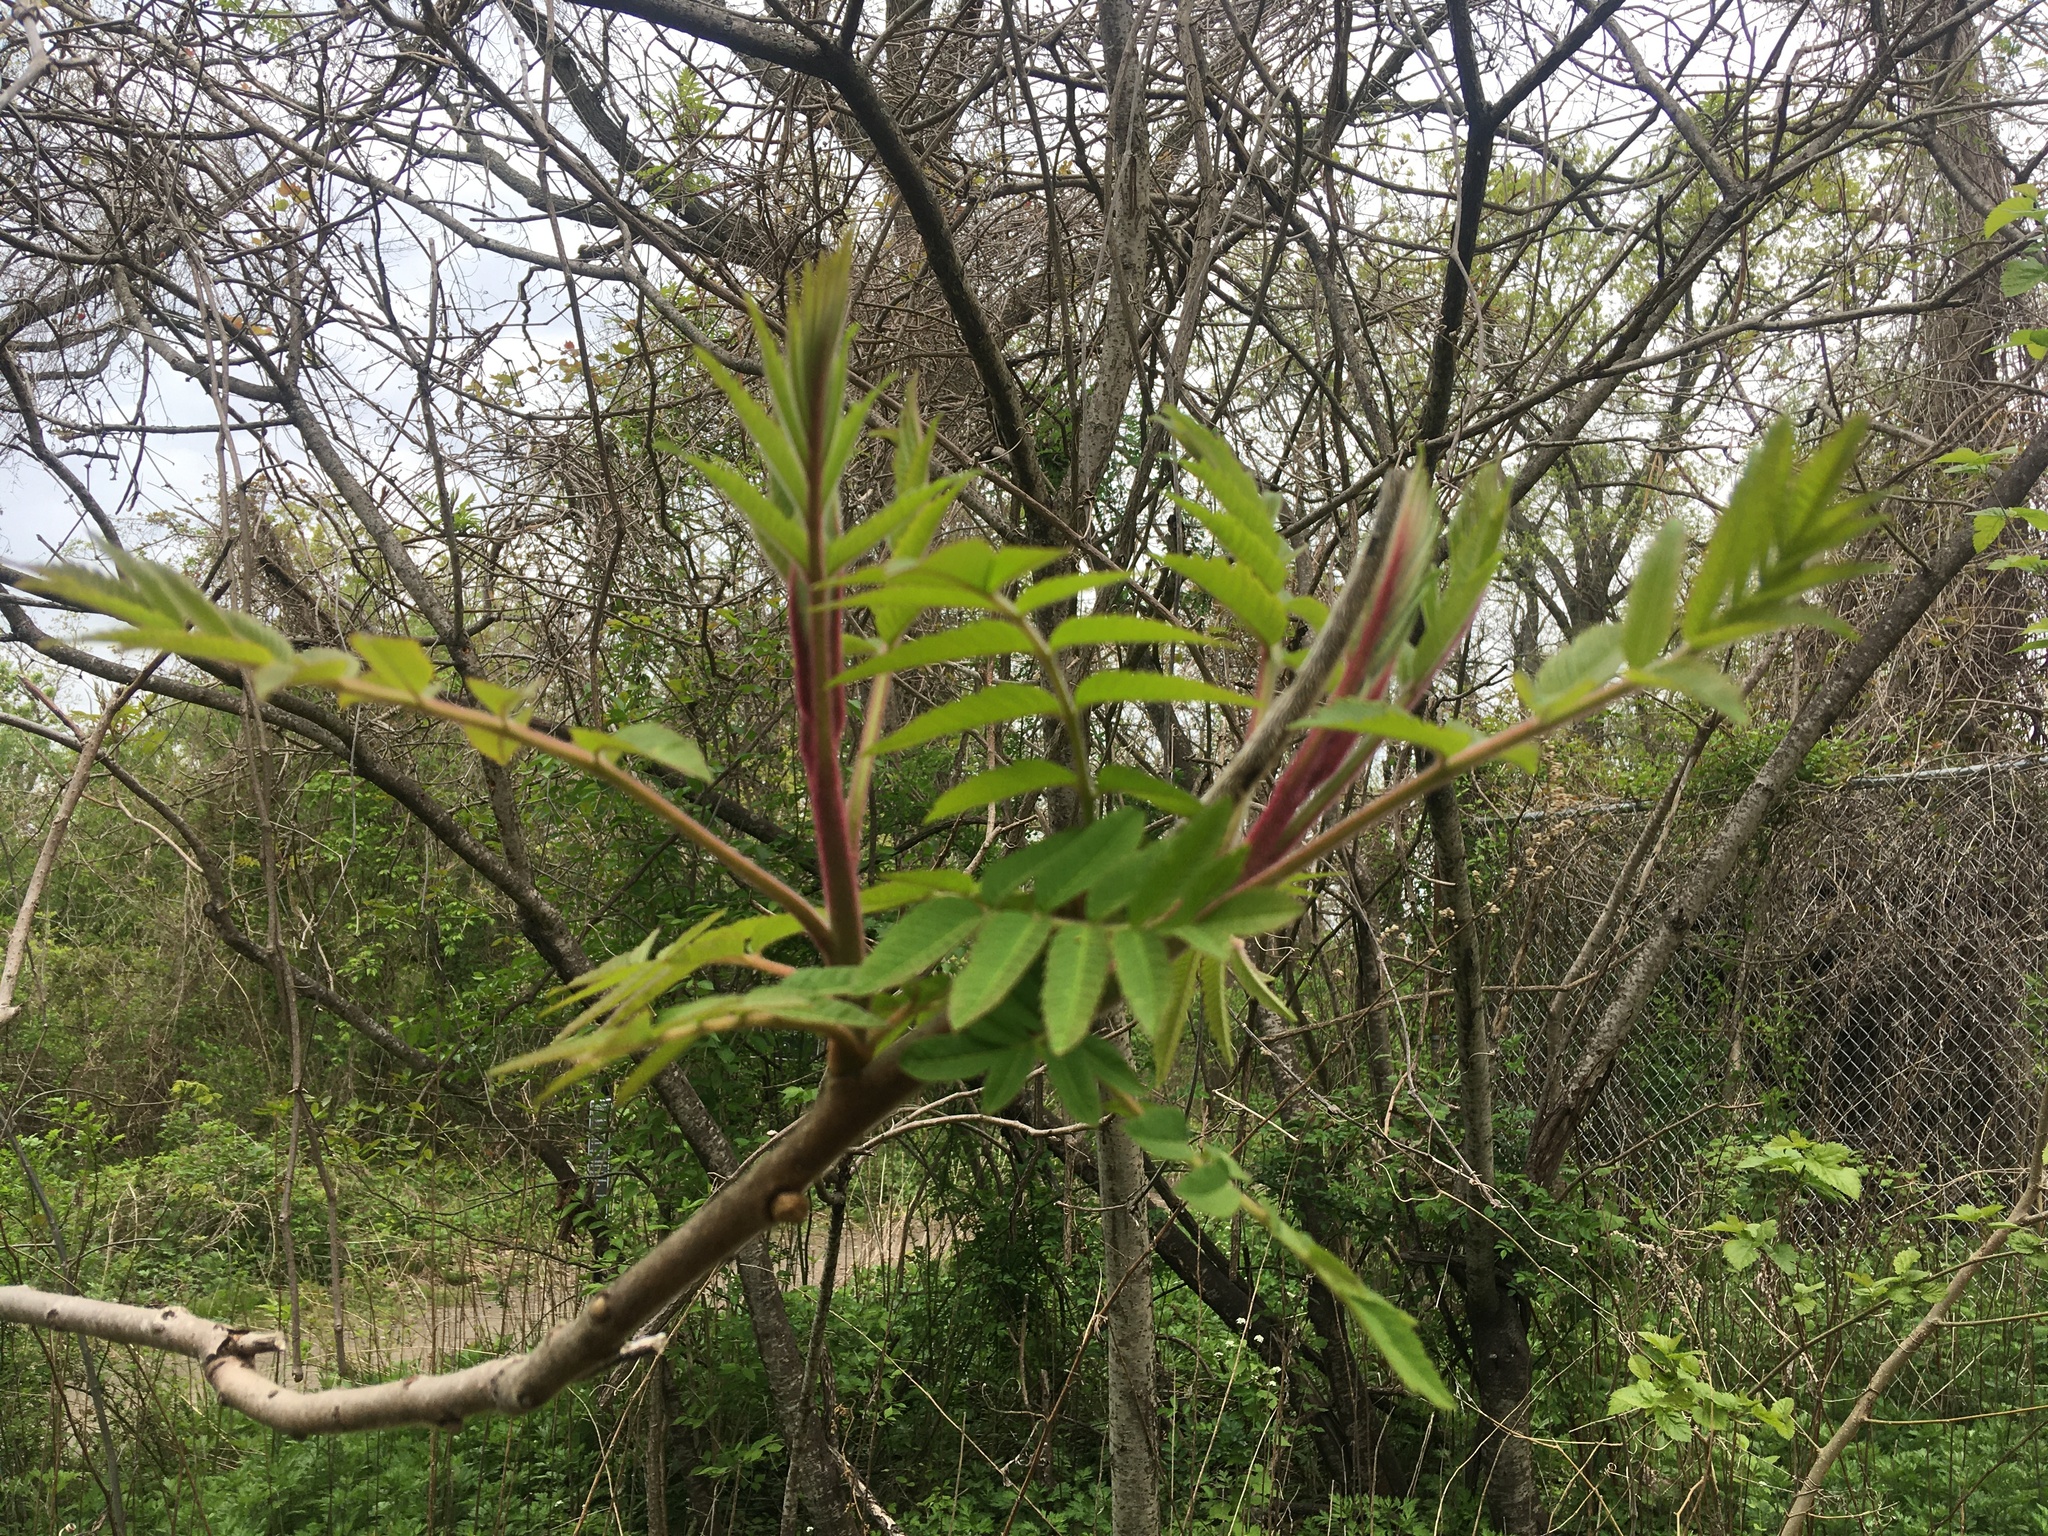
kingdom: Plantae
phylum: Tracheophyta
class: Magnoliopsida
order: Sapindales
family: Anacardiaceae
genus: Rhus
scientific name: Rhus typhina
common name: Staghorn sumac
